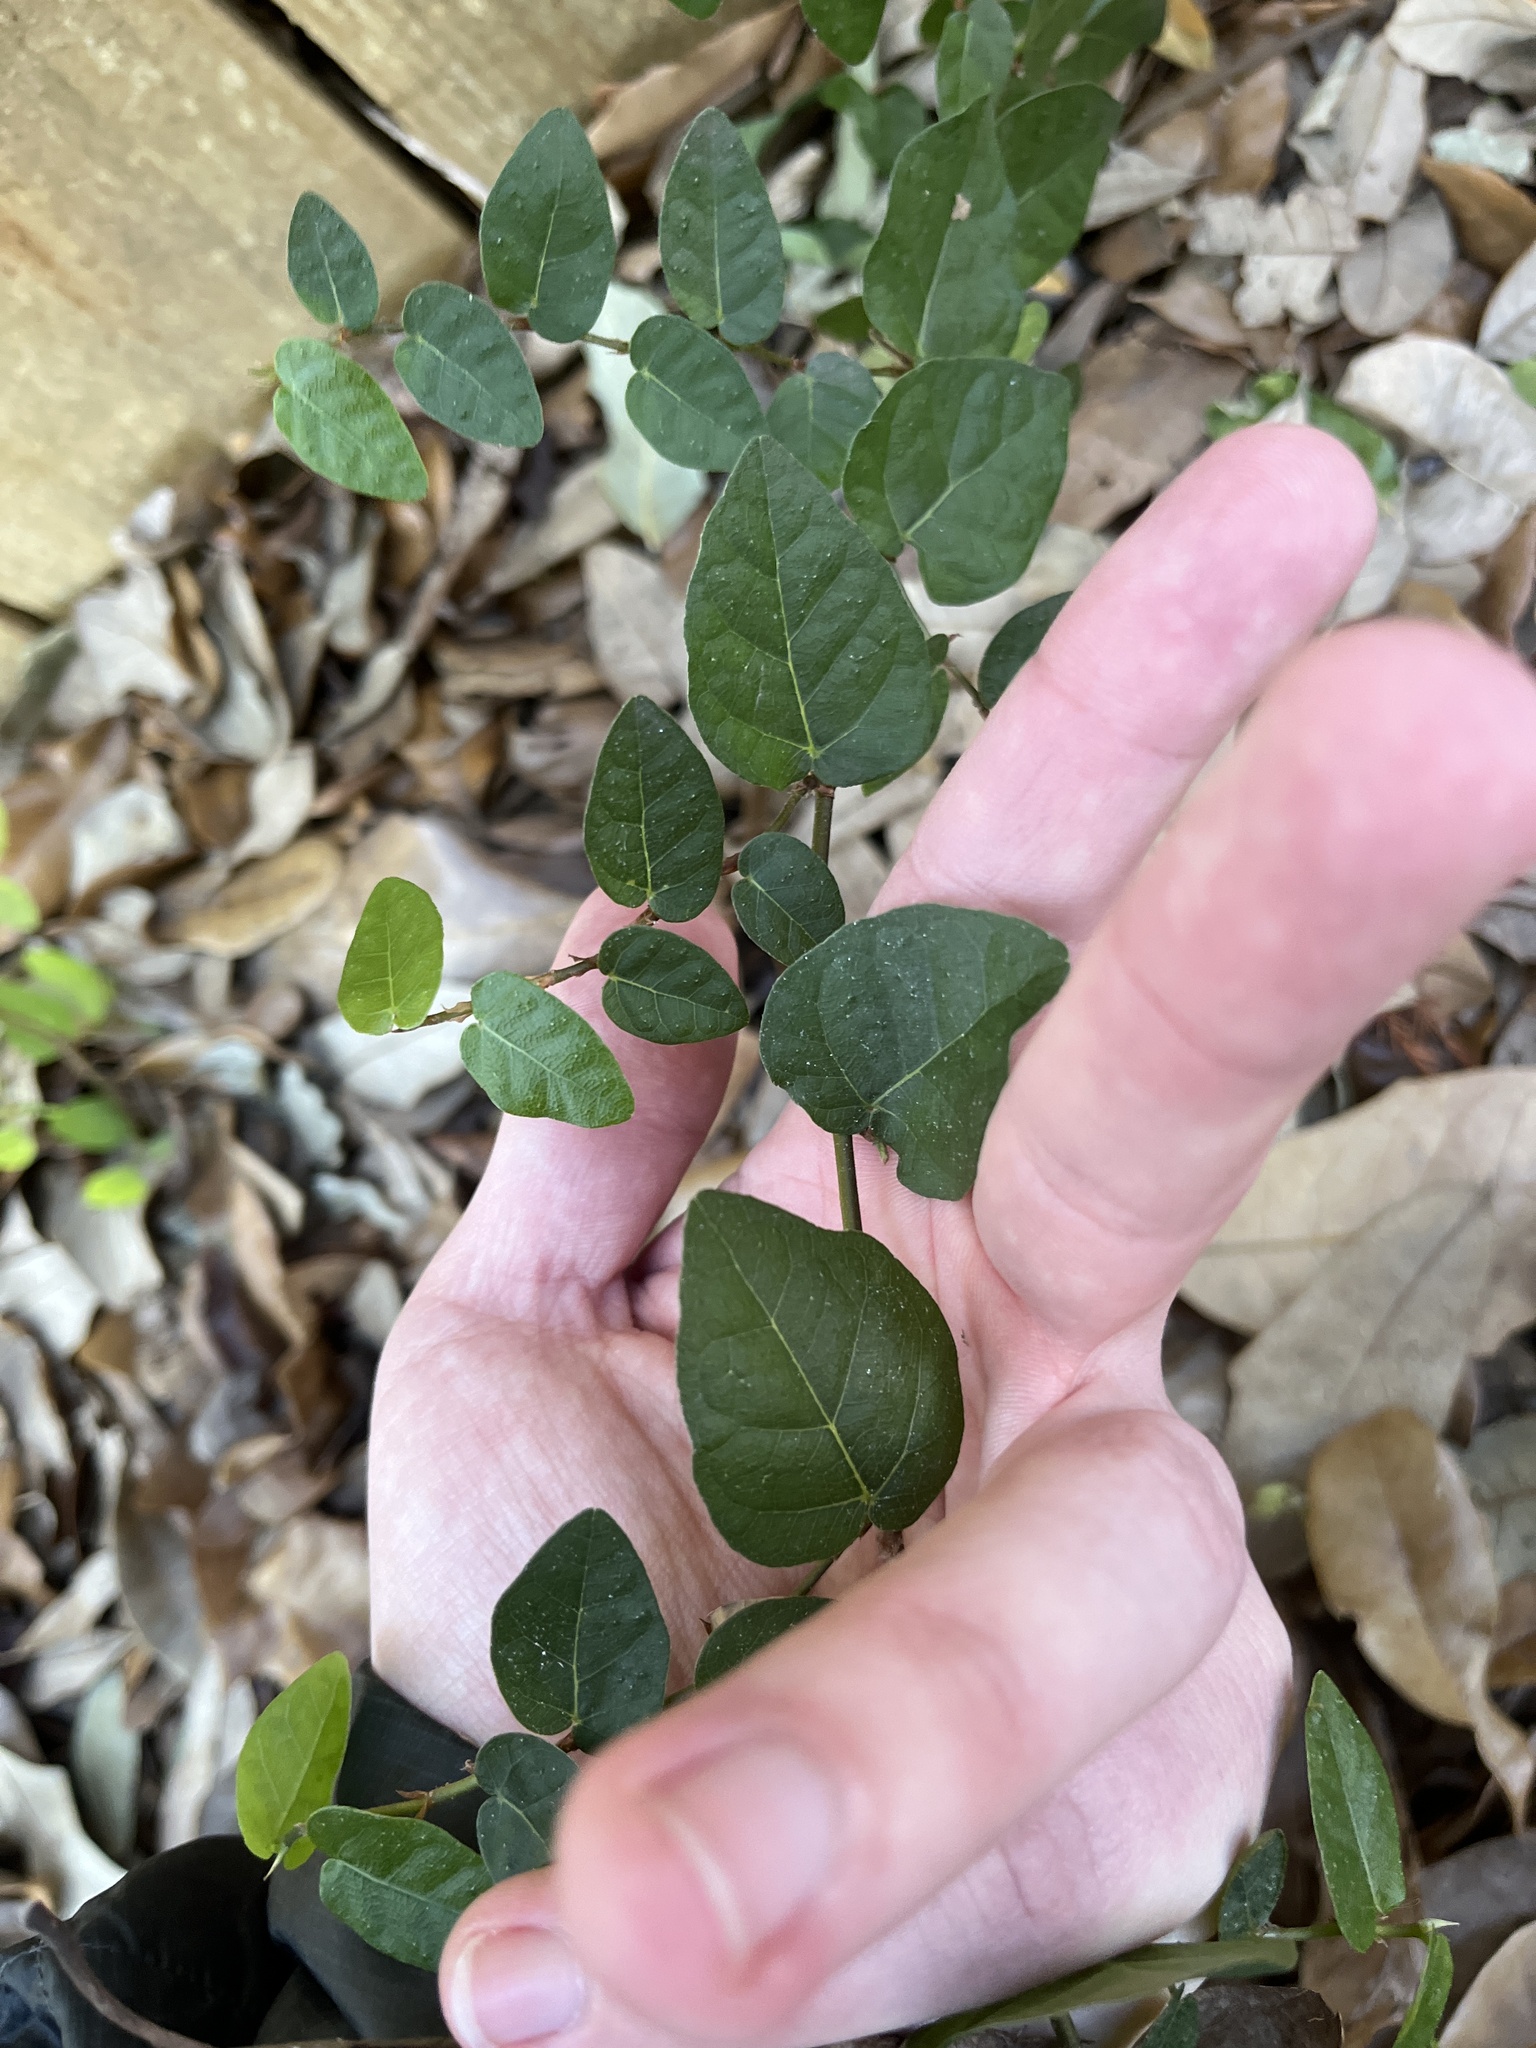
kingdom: Plantae
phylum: Tracheophyta
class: Magnoliopsida
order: Rosales
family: Moraceae
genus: Ficus
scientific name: Ficus pumila
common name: Climbingfig
